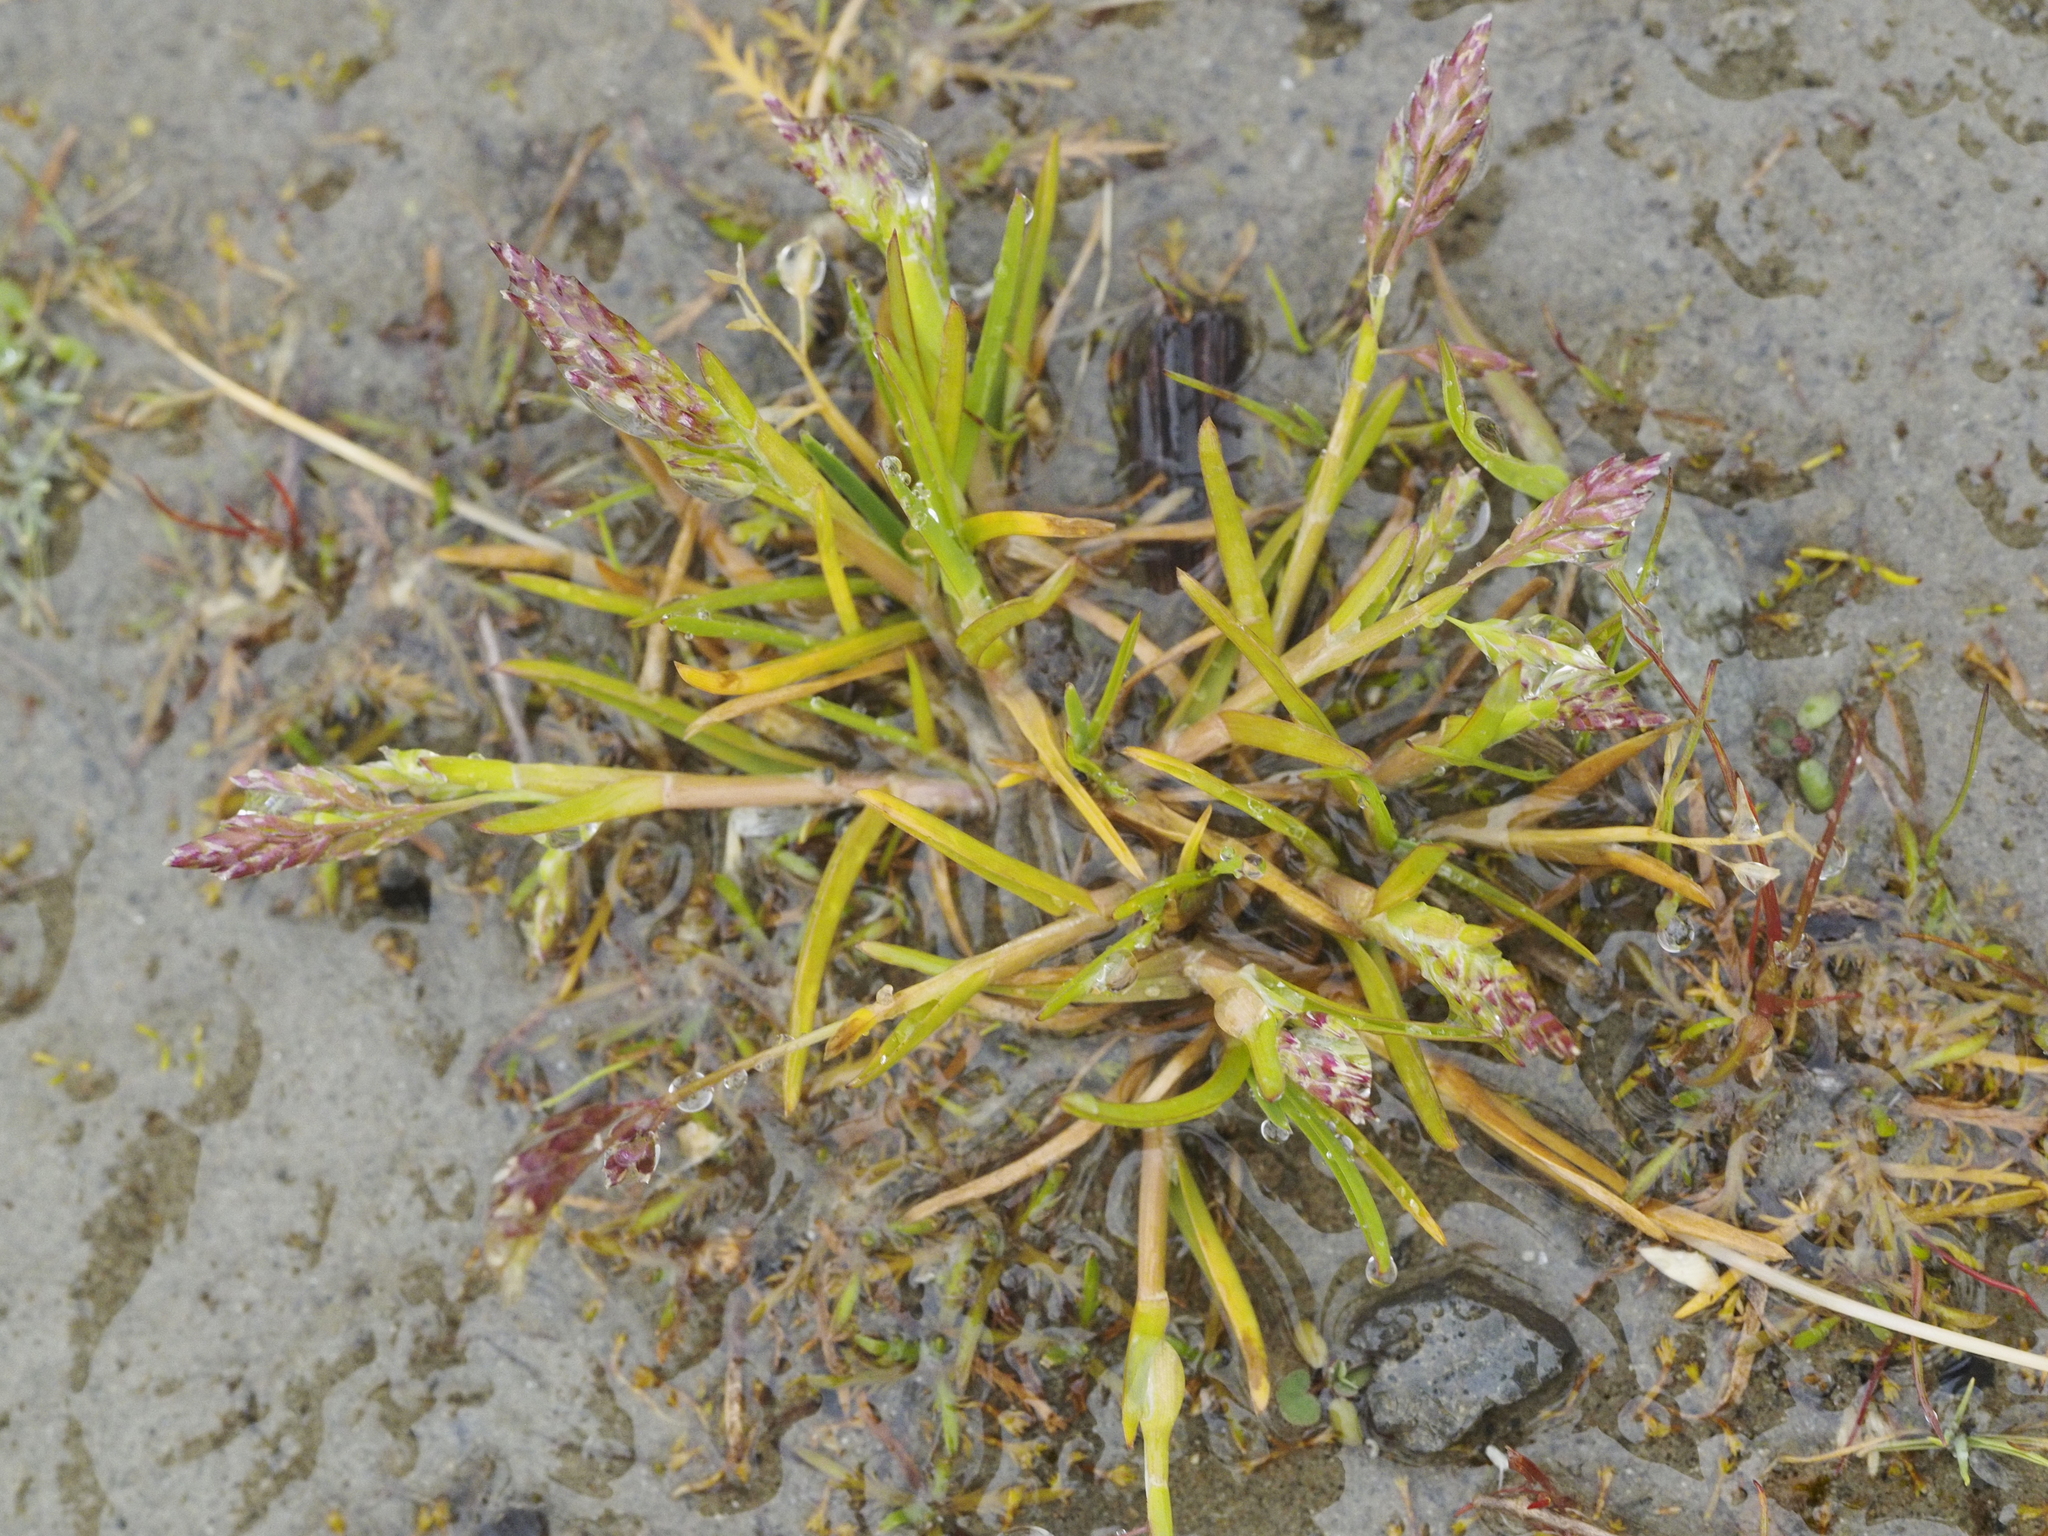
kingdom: Plantae
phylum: Tracheophyta
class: Liliopsida
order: Poales
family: Poaceae
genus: Poa
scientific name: Poa annua
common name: Annual bluegrass
